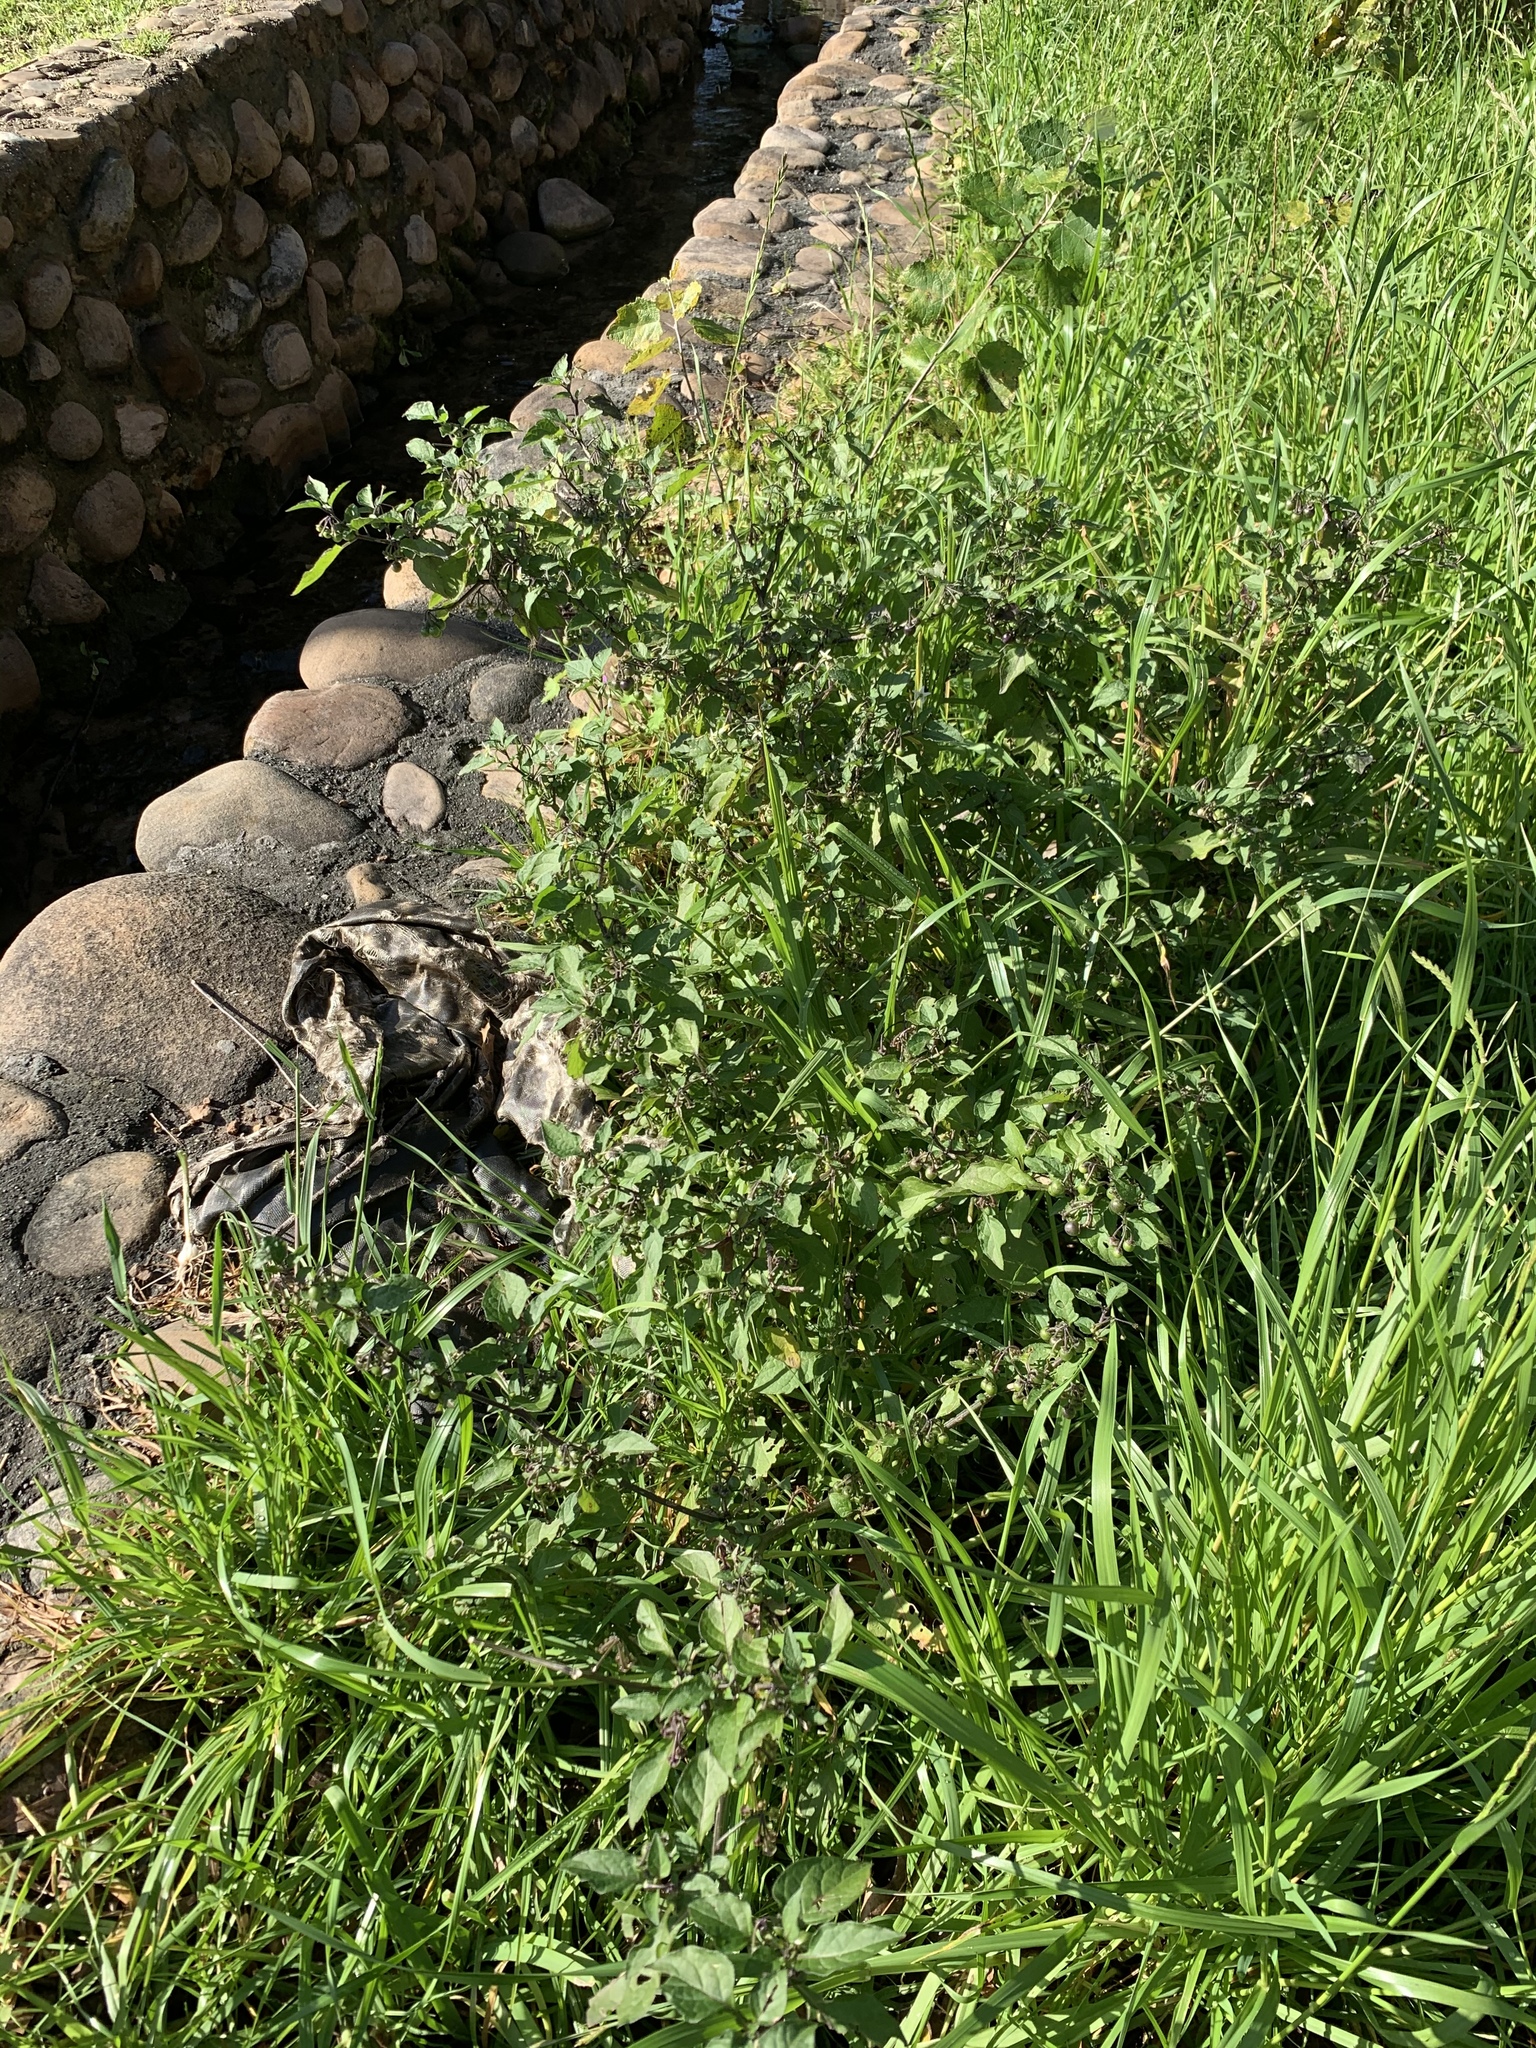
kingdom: Plantae
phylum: Tracheophyta
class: Magnoliopsida
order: Solanales
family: Solanaceae
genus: Solanum
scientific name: Solanum nigrum
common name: Black nightshade
